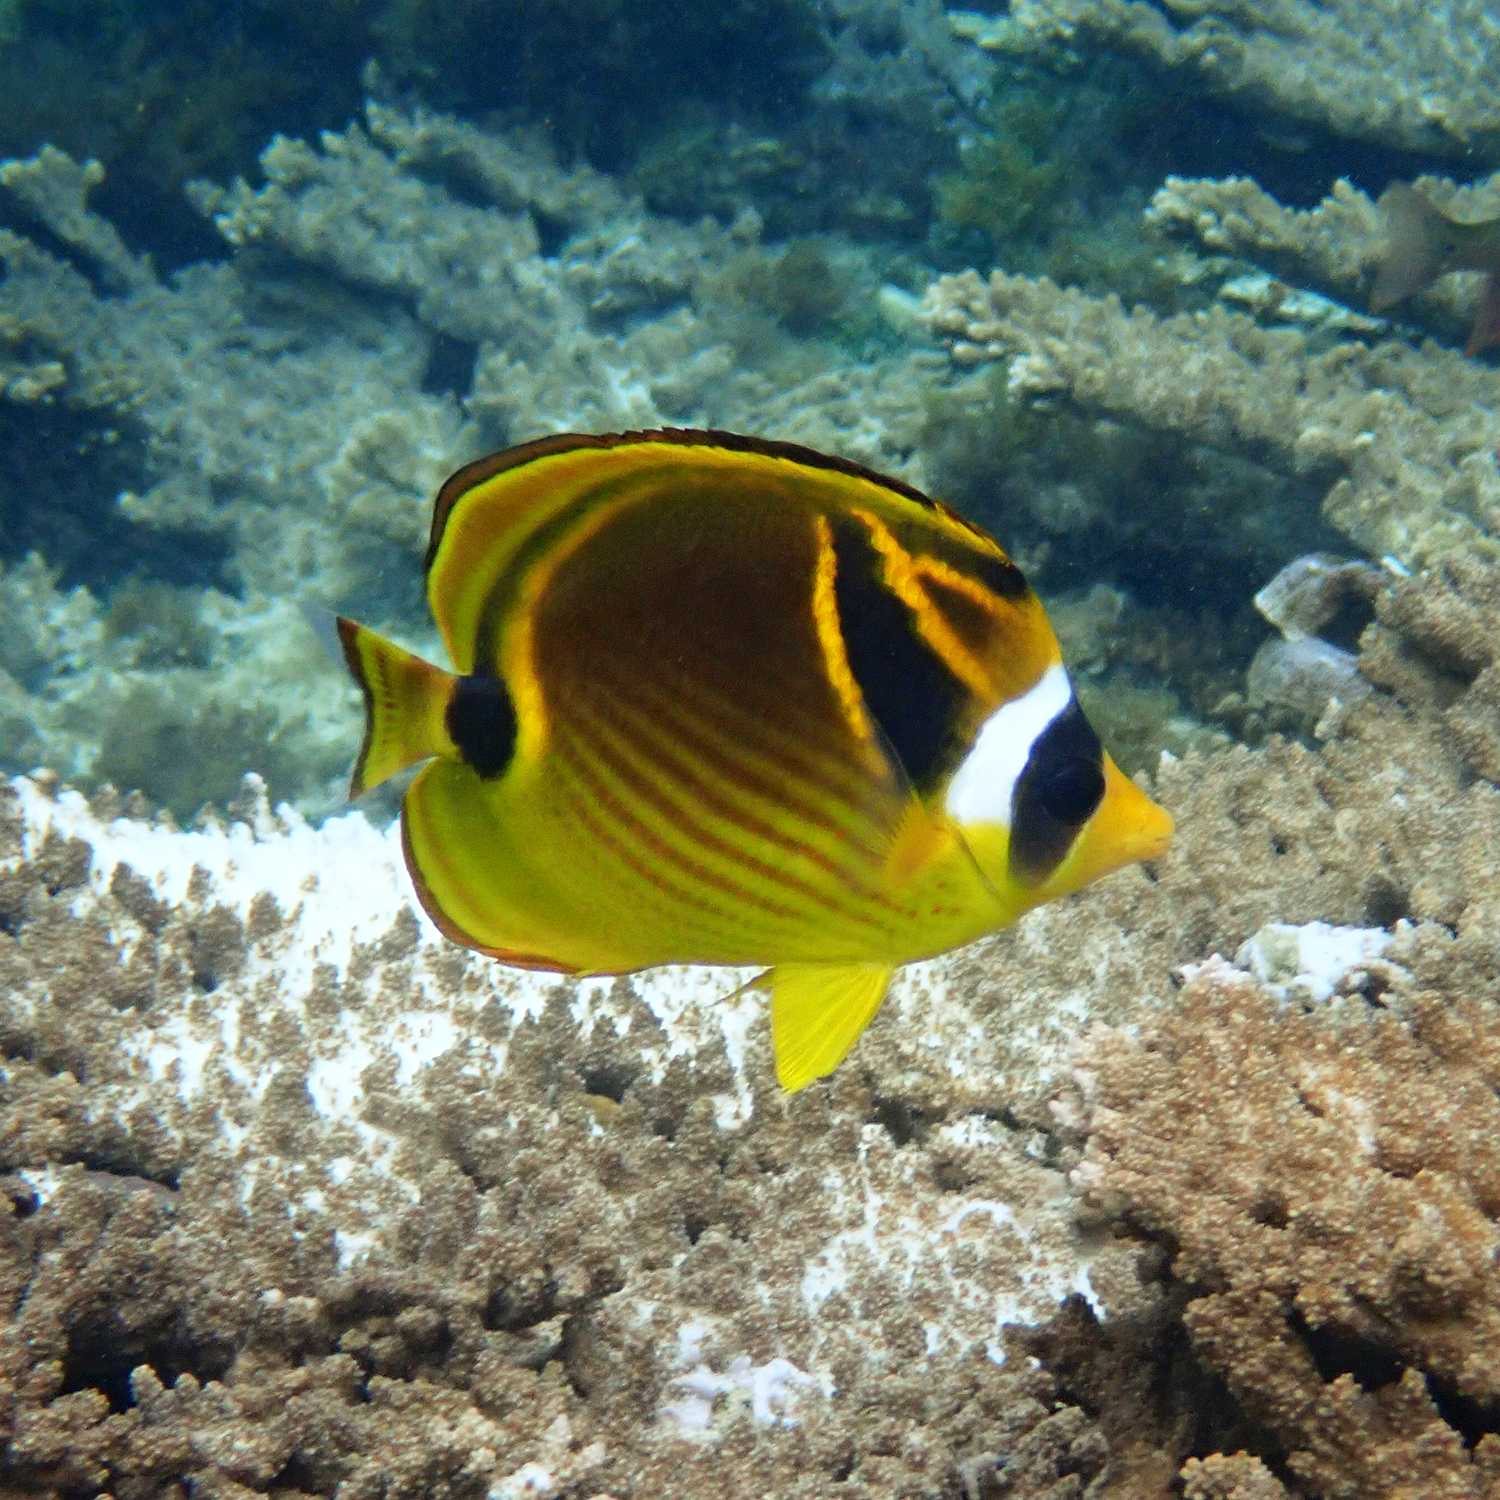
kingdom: Animalia
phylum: Chordata
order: Perciformes
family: Chaetodontidae
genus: Chaetodon
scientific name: Chaetodon lunula
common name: Raccoon butterflyfish
